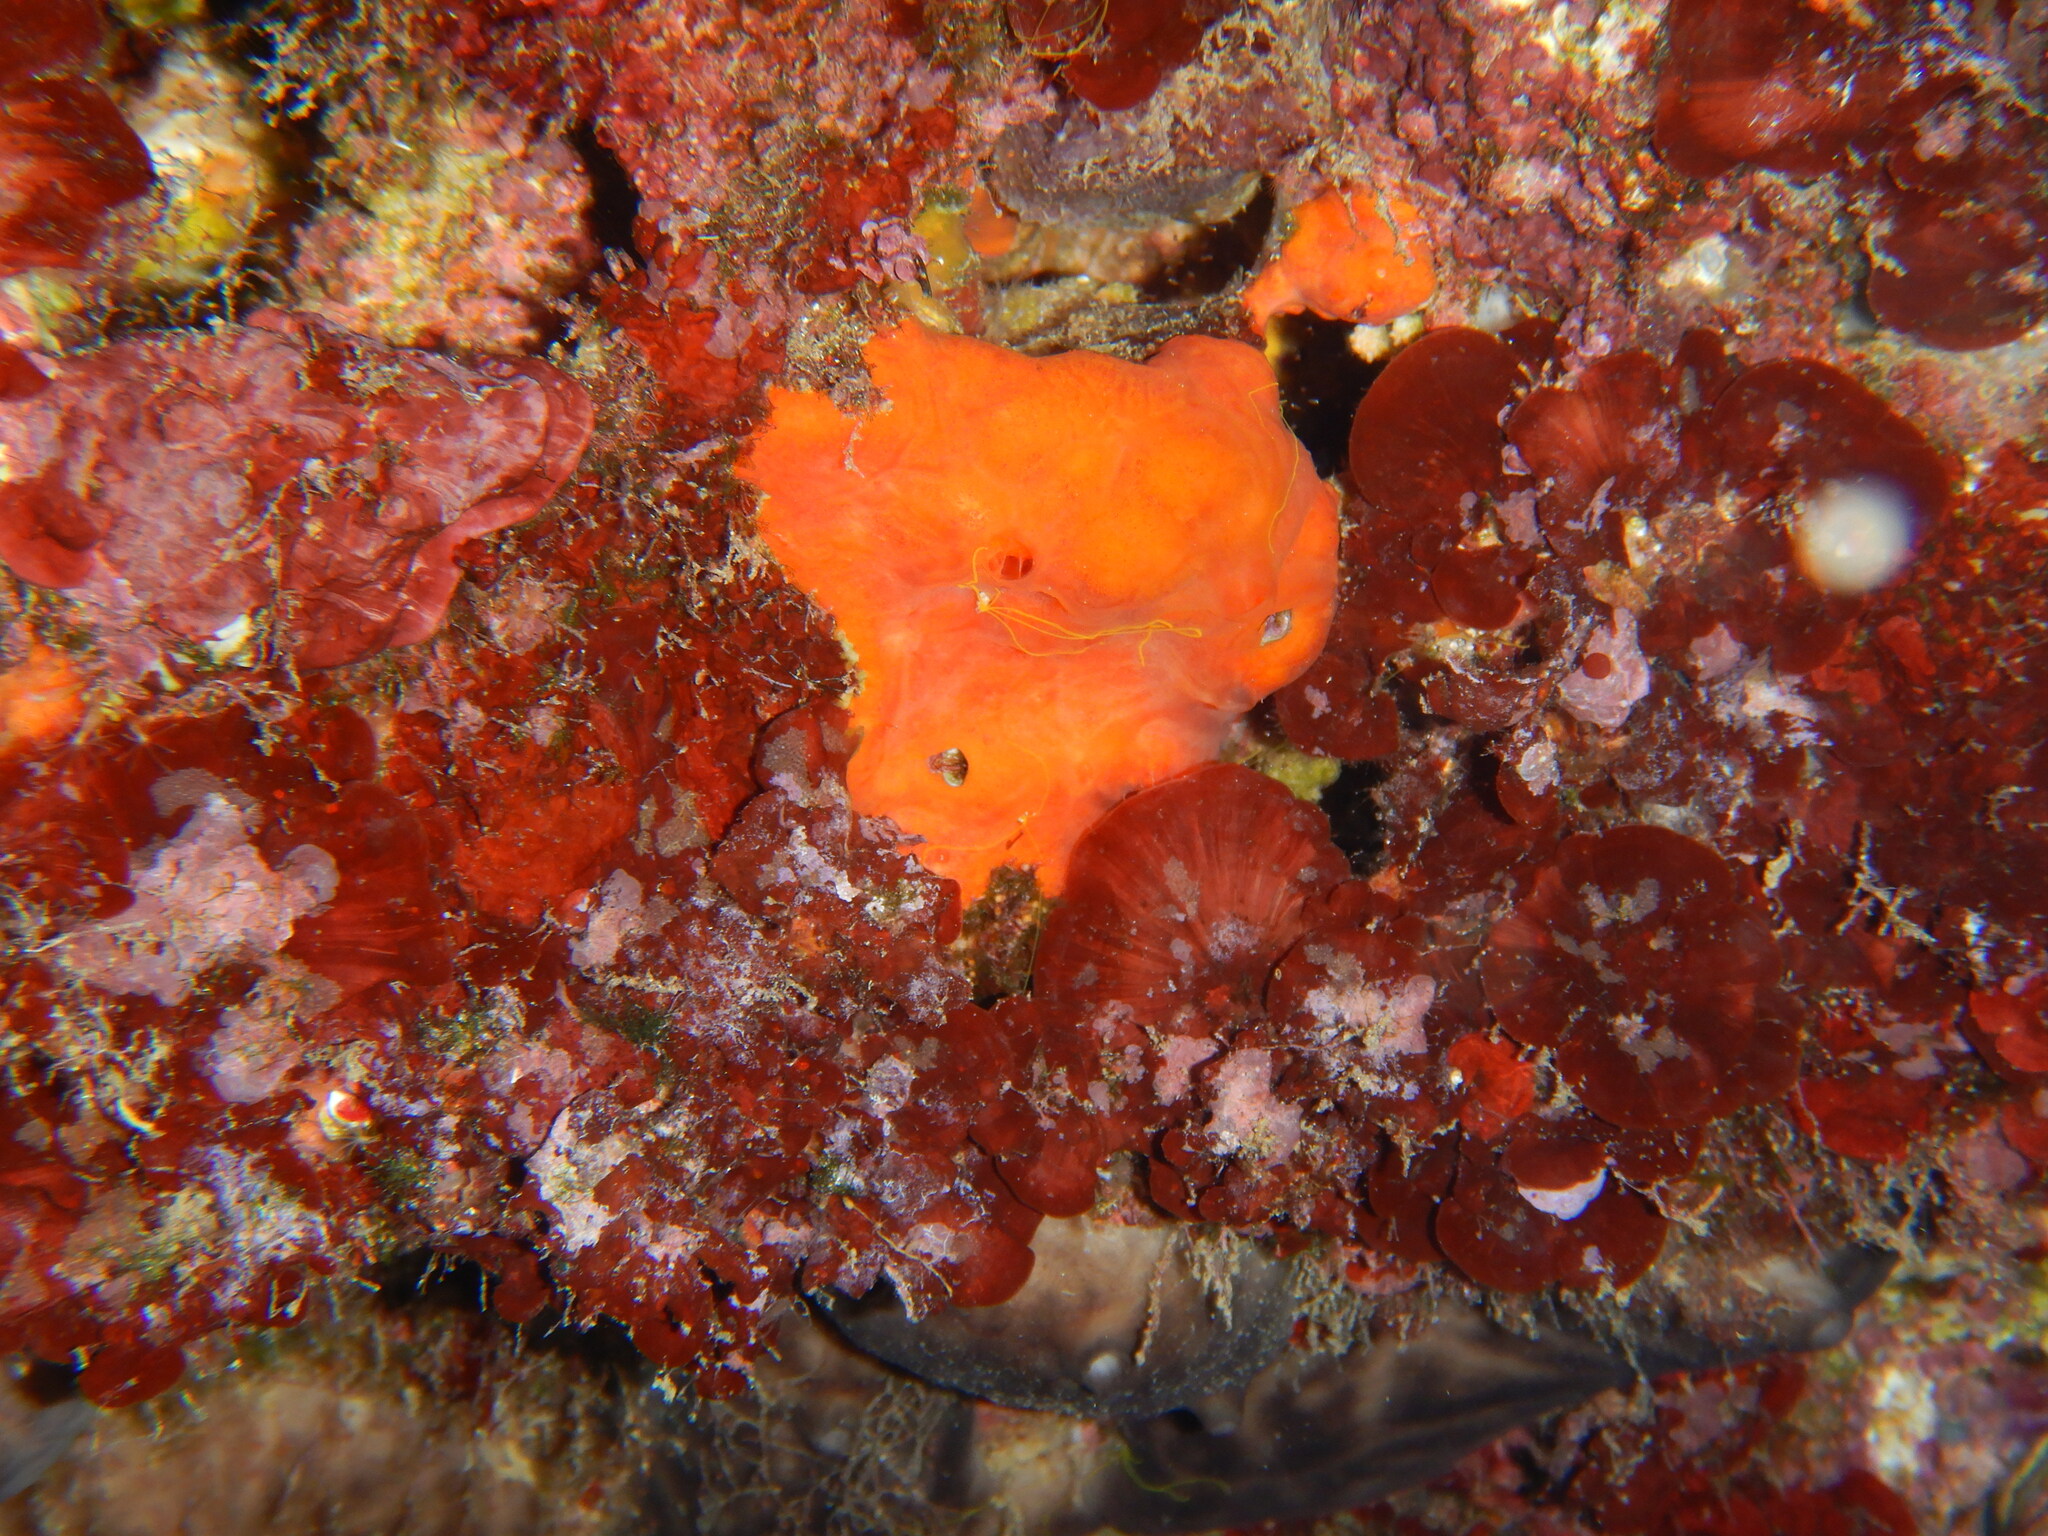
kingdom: Animalia
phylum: Porifera
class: Demospongiae
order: Poecilosclerida
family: Crambeidae
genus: Crambe
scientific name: Crambe crambe
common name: Orange-red encrusting sponge
